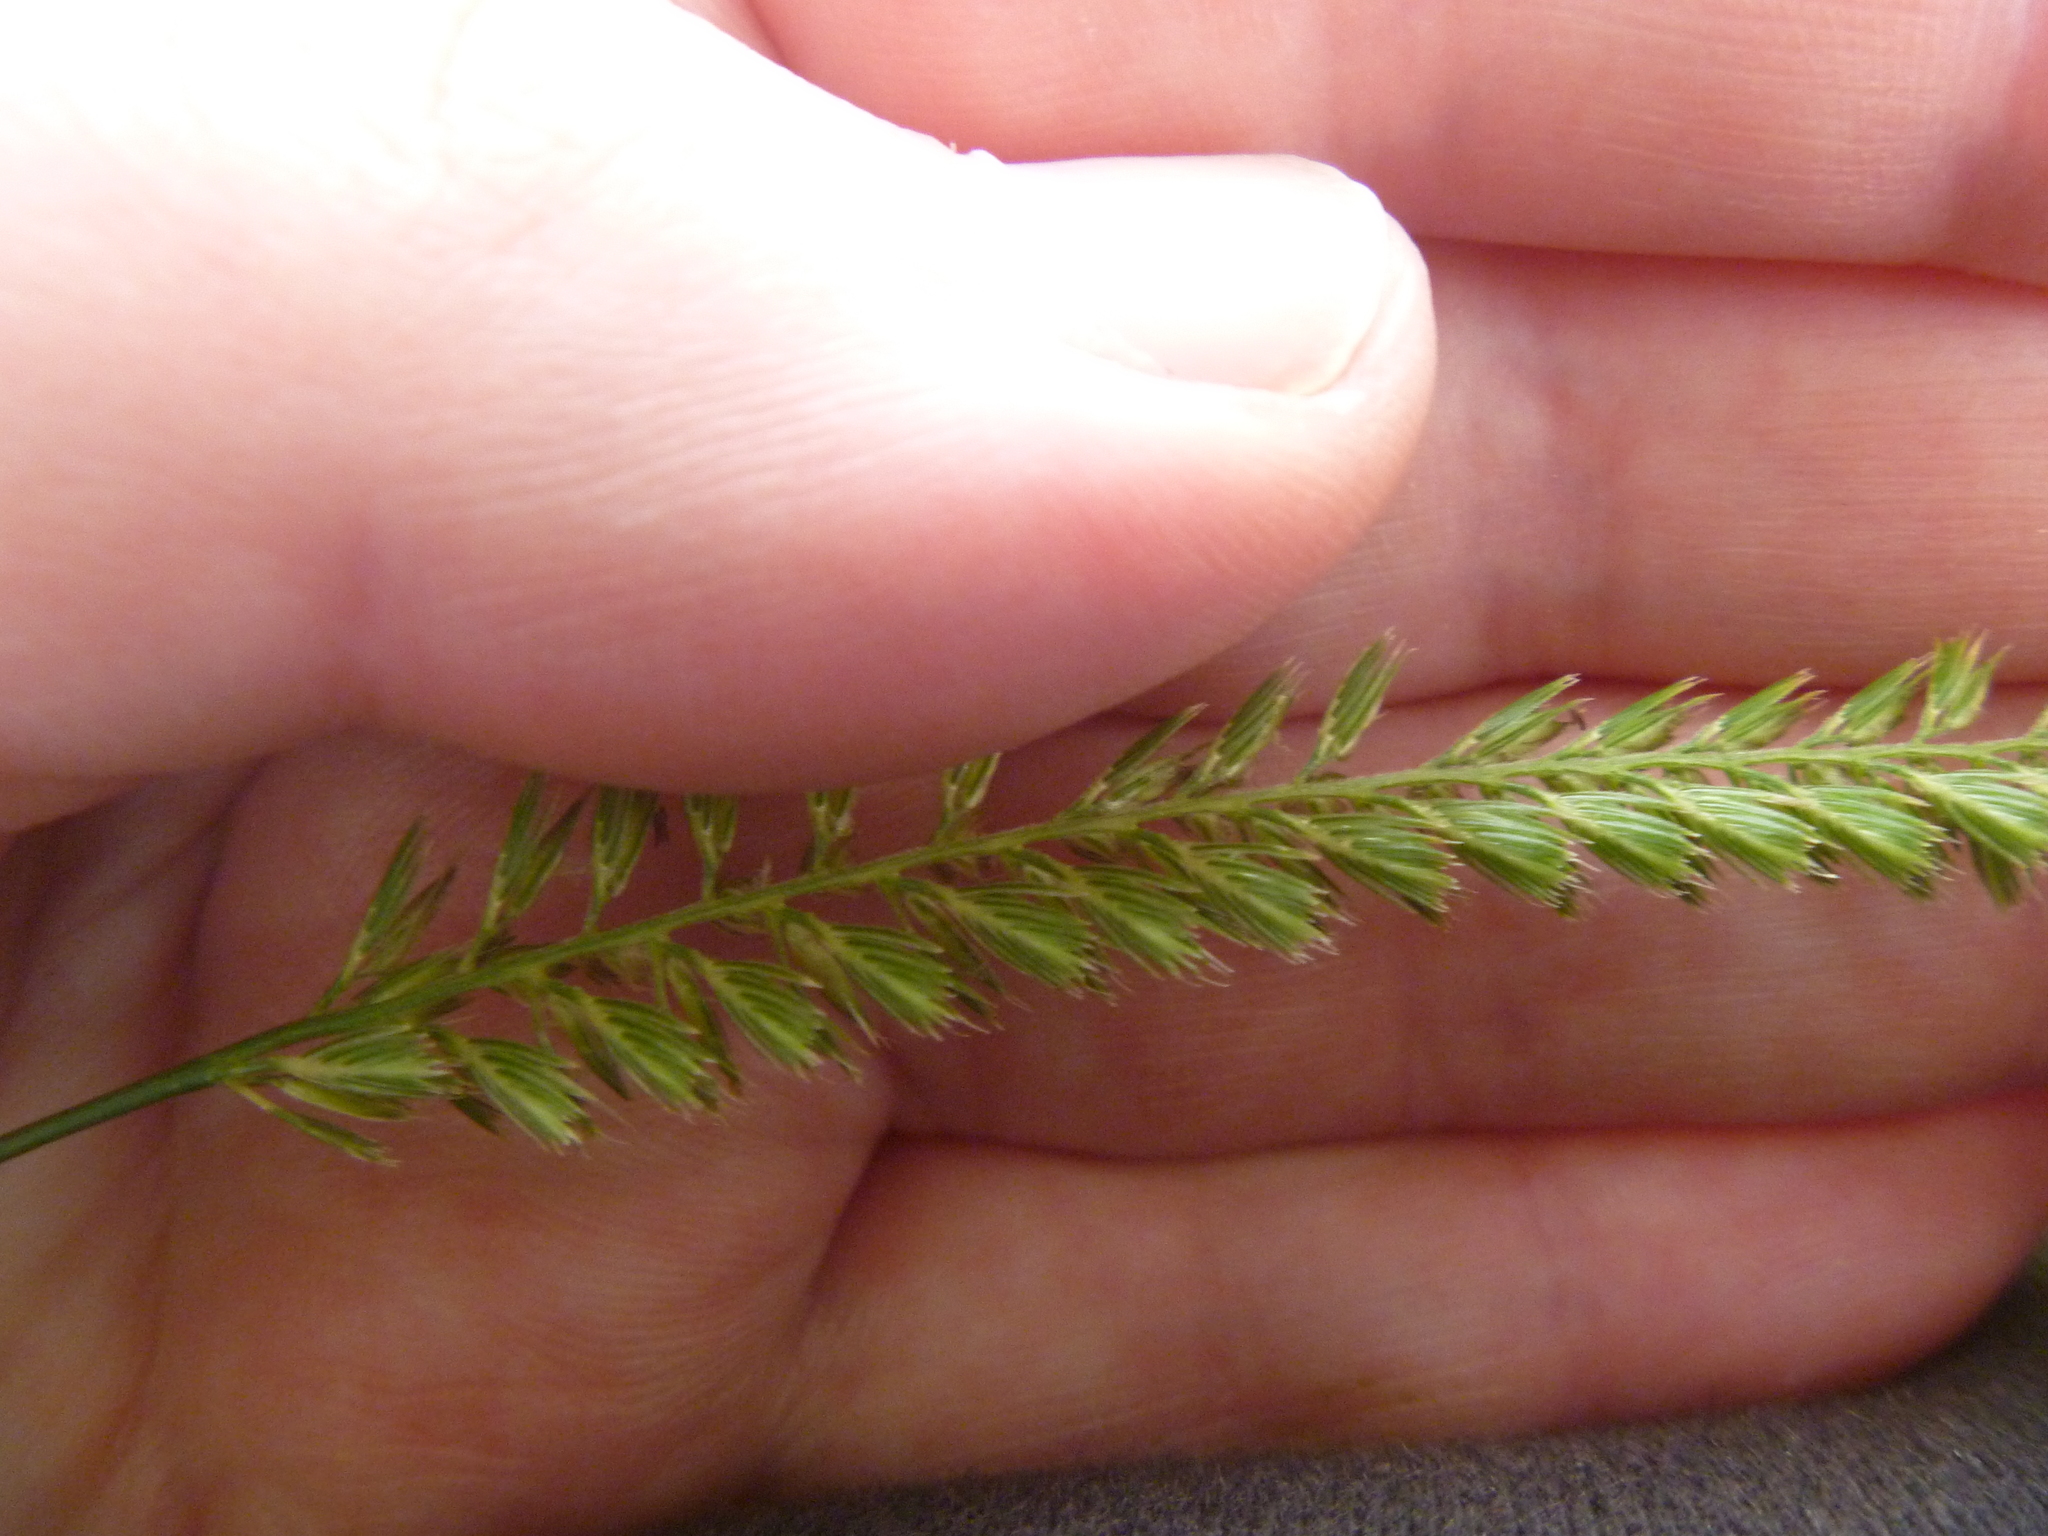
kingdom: Plantae
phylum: Tracheophyta
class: Liliopsida
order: Poales
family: Poaceae
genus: Cynosurus
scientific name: Cynosurus cristatus
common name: Crested dog's-tail
